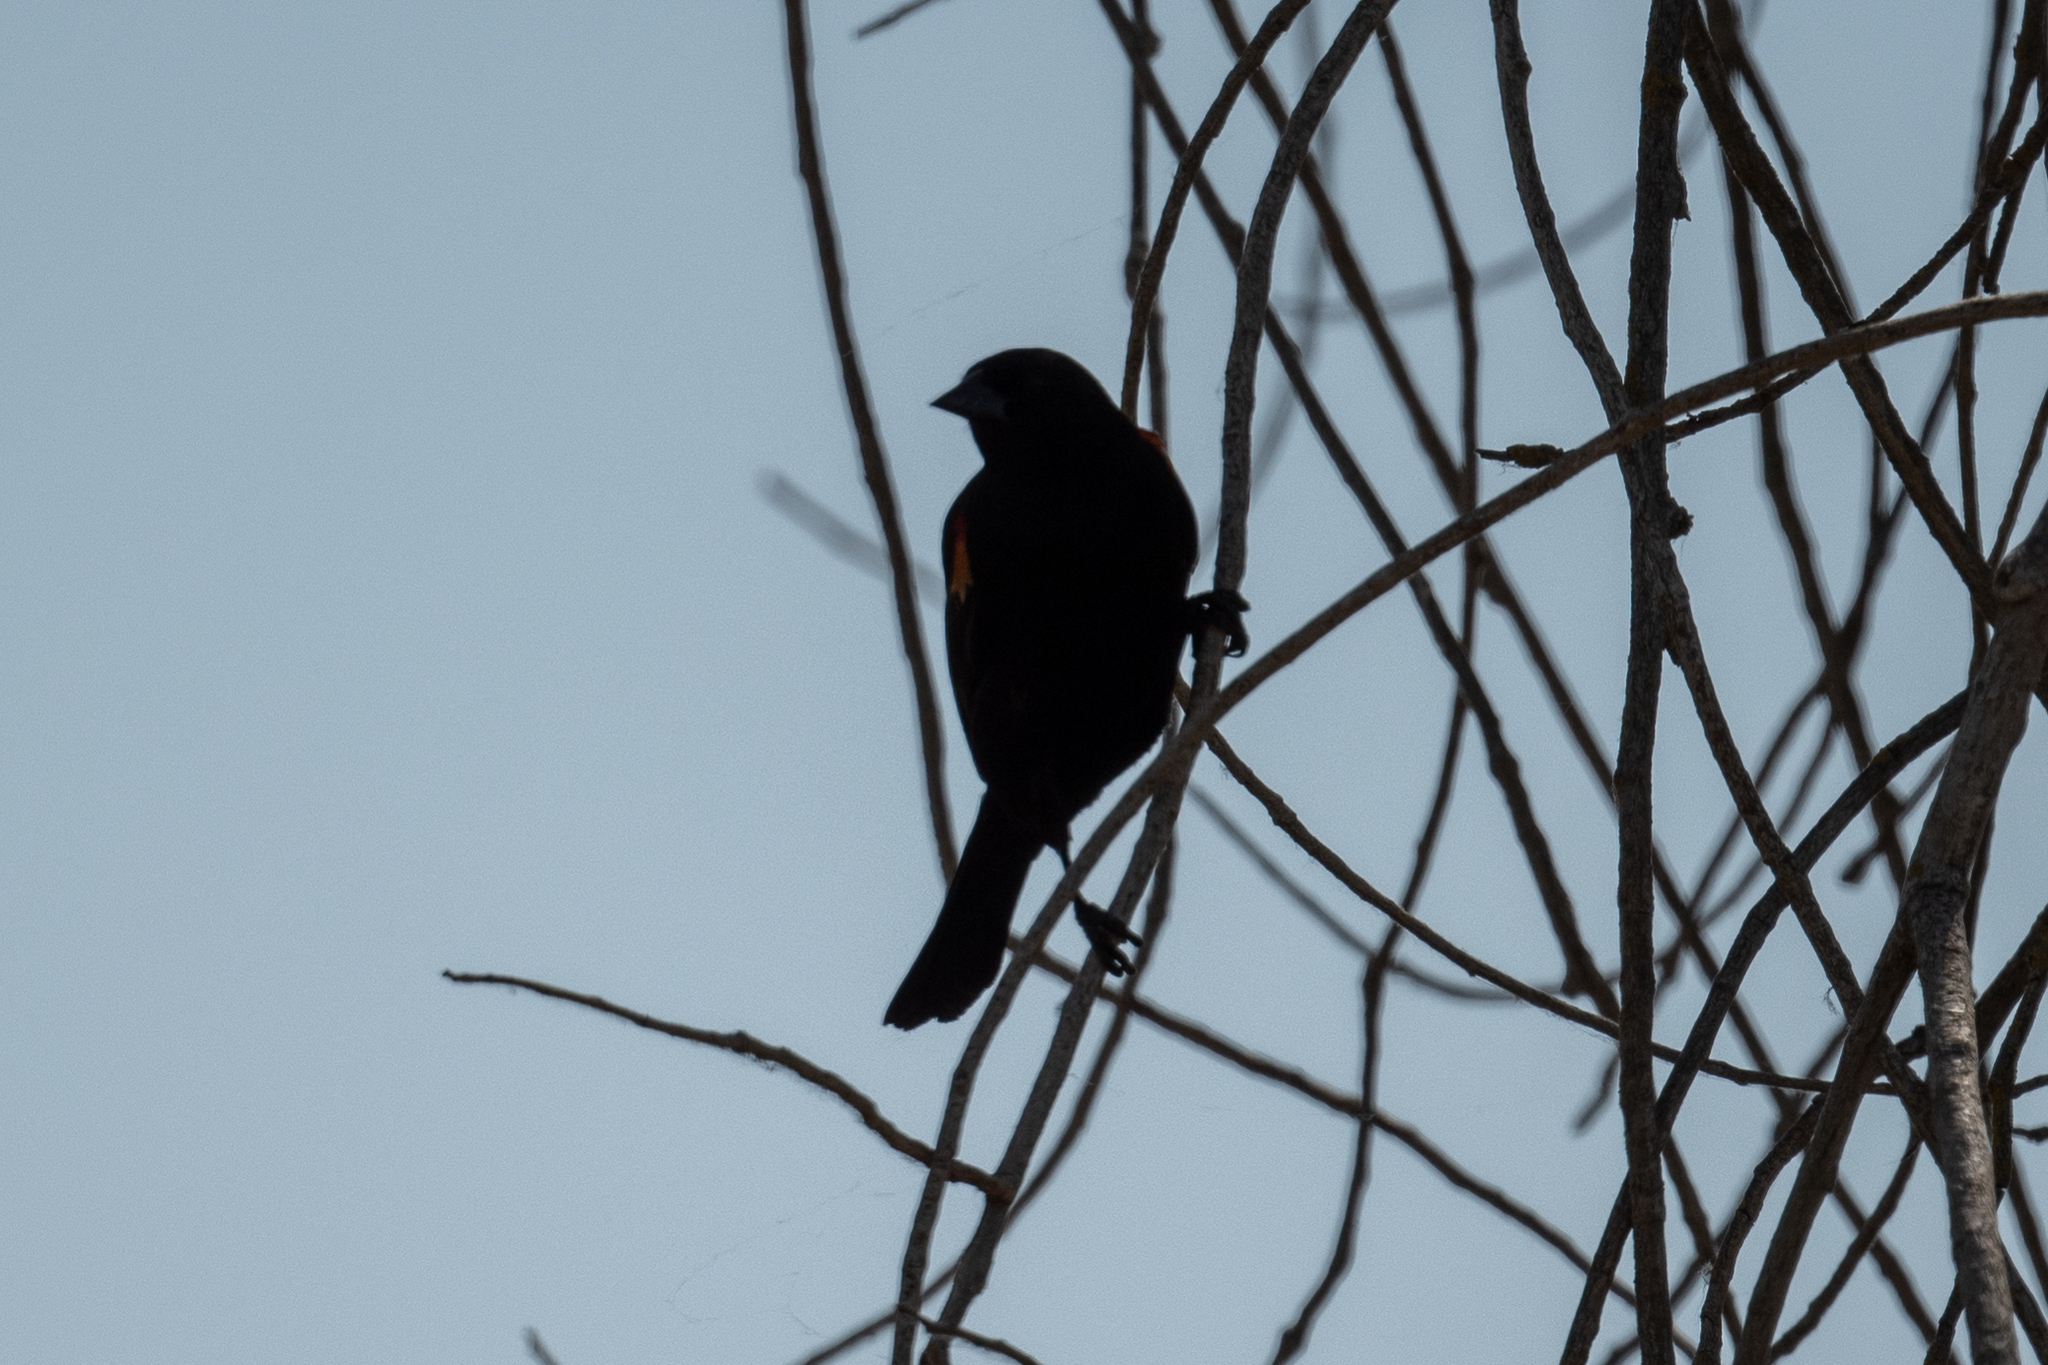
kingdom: Animalia
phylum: Chordata
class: Aves
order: Passeriformes
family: Icteridae
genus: Agelaius
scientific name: Agelaius phoeniceus
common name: Red-winged blackbird
